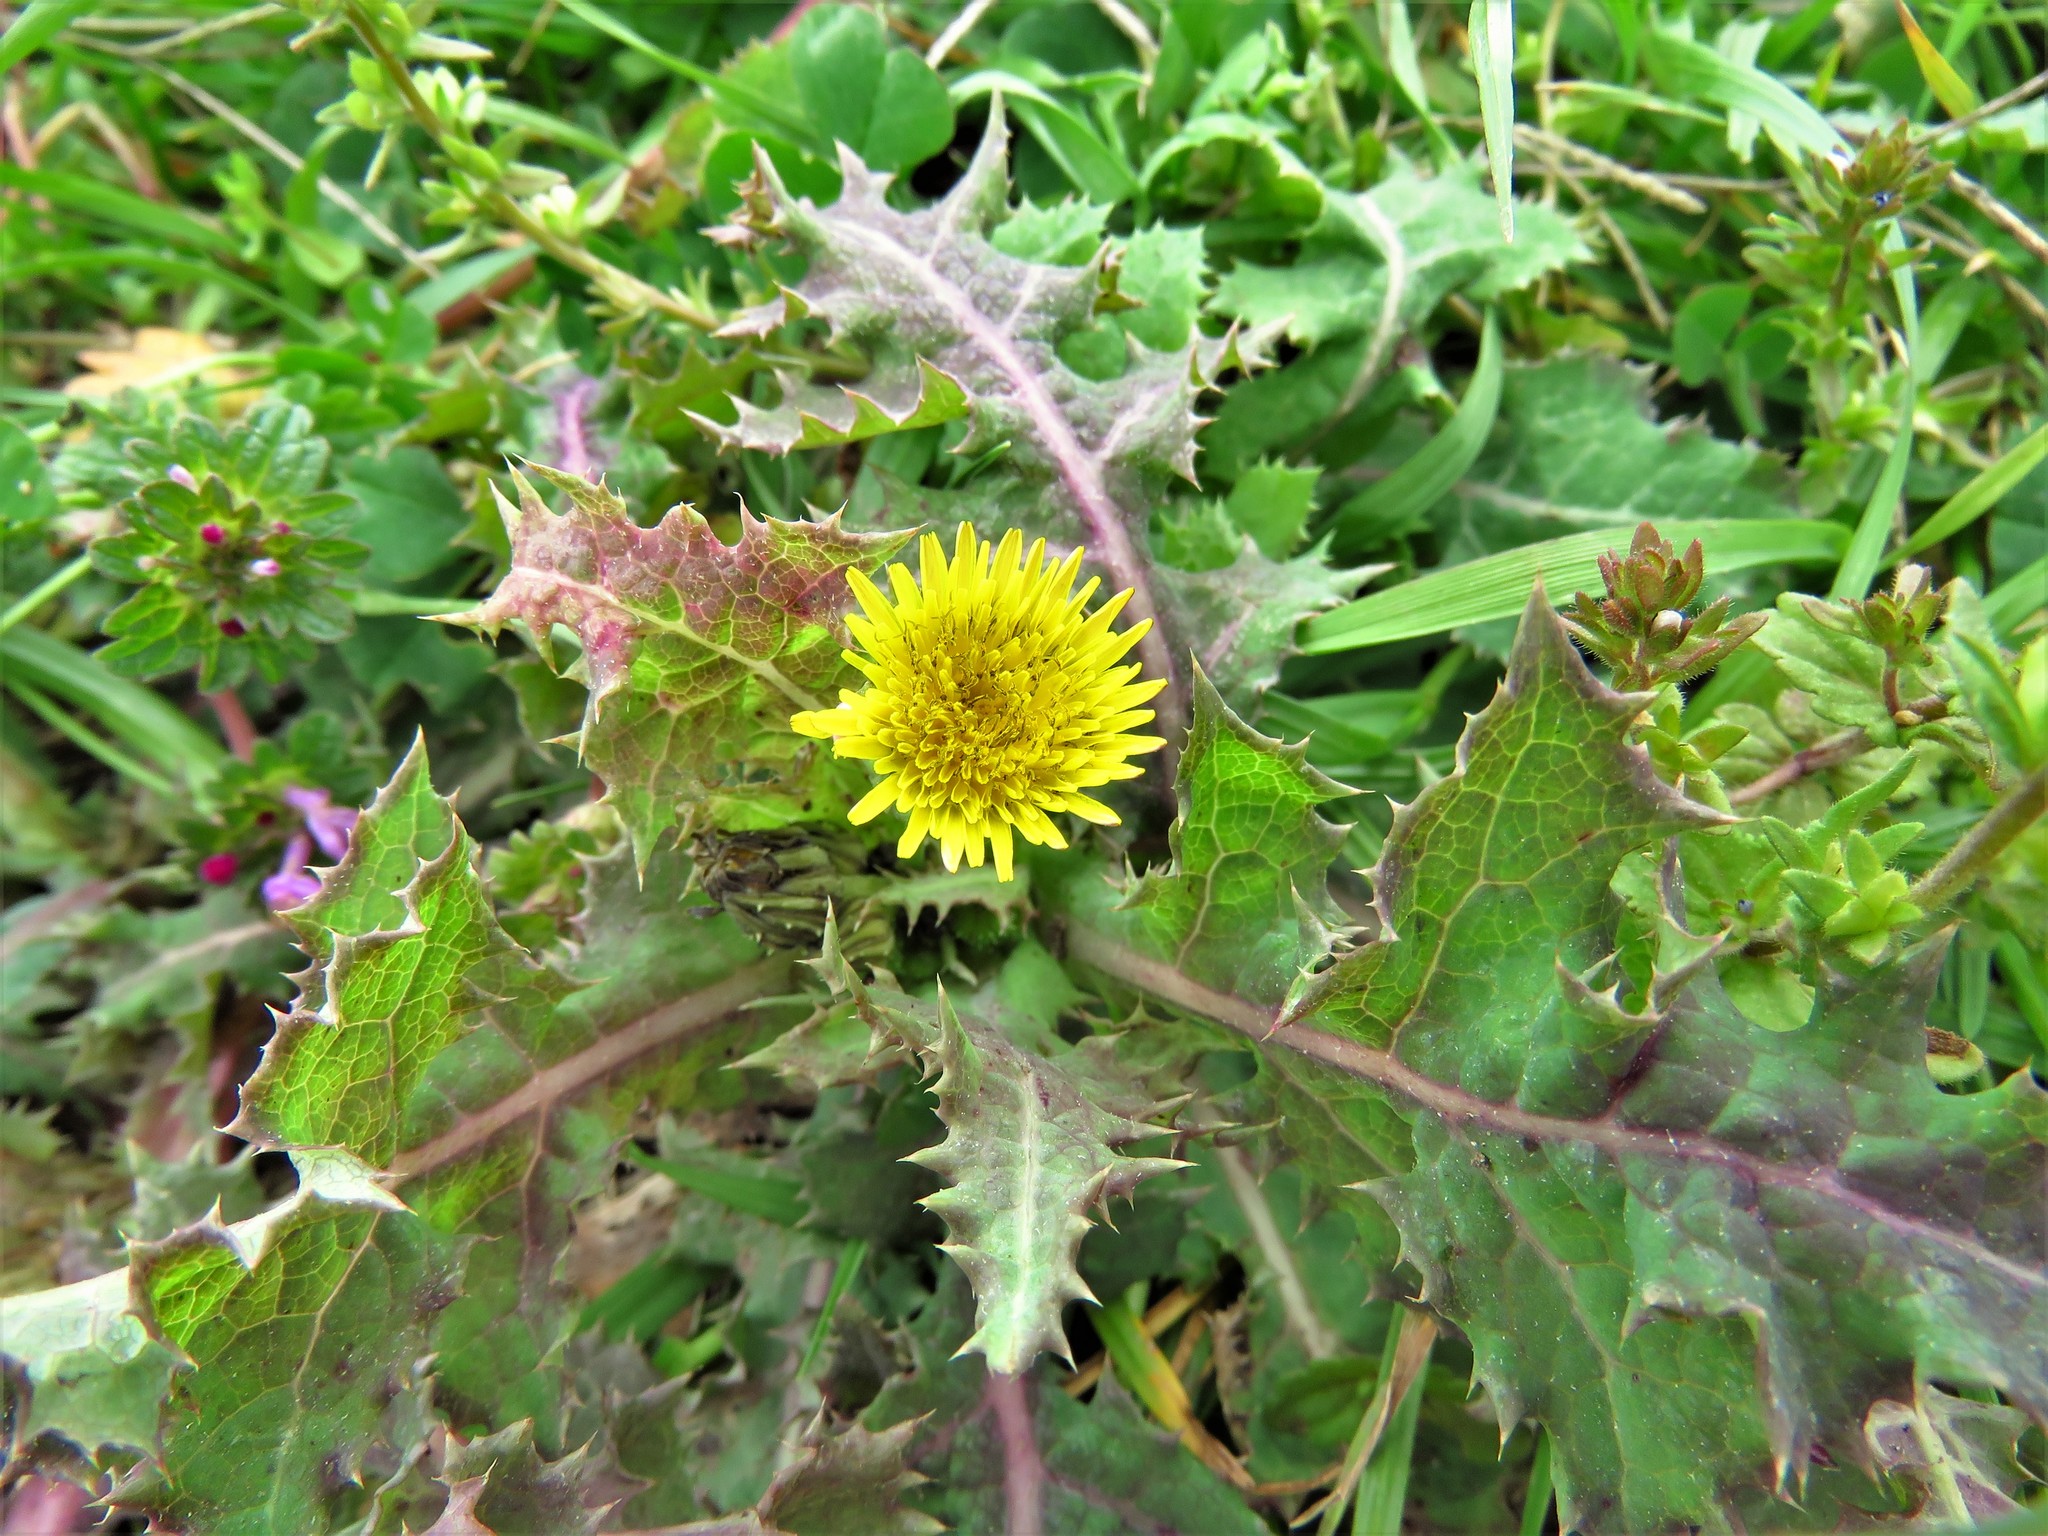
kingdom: Plantae
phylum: Tracheophyta
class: Magnoliopsida
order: Asterales
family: Asteraceae
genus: Sonchus
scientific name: Sonchus asper
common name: Prickly sow-thistle
